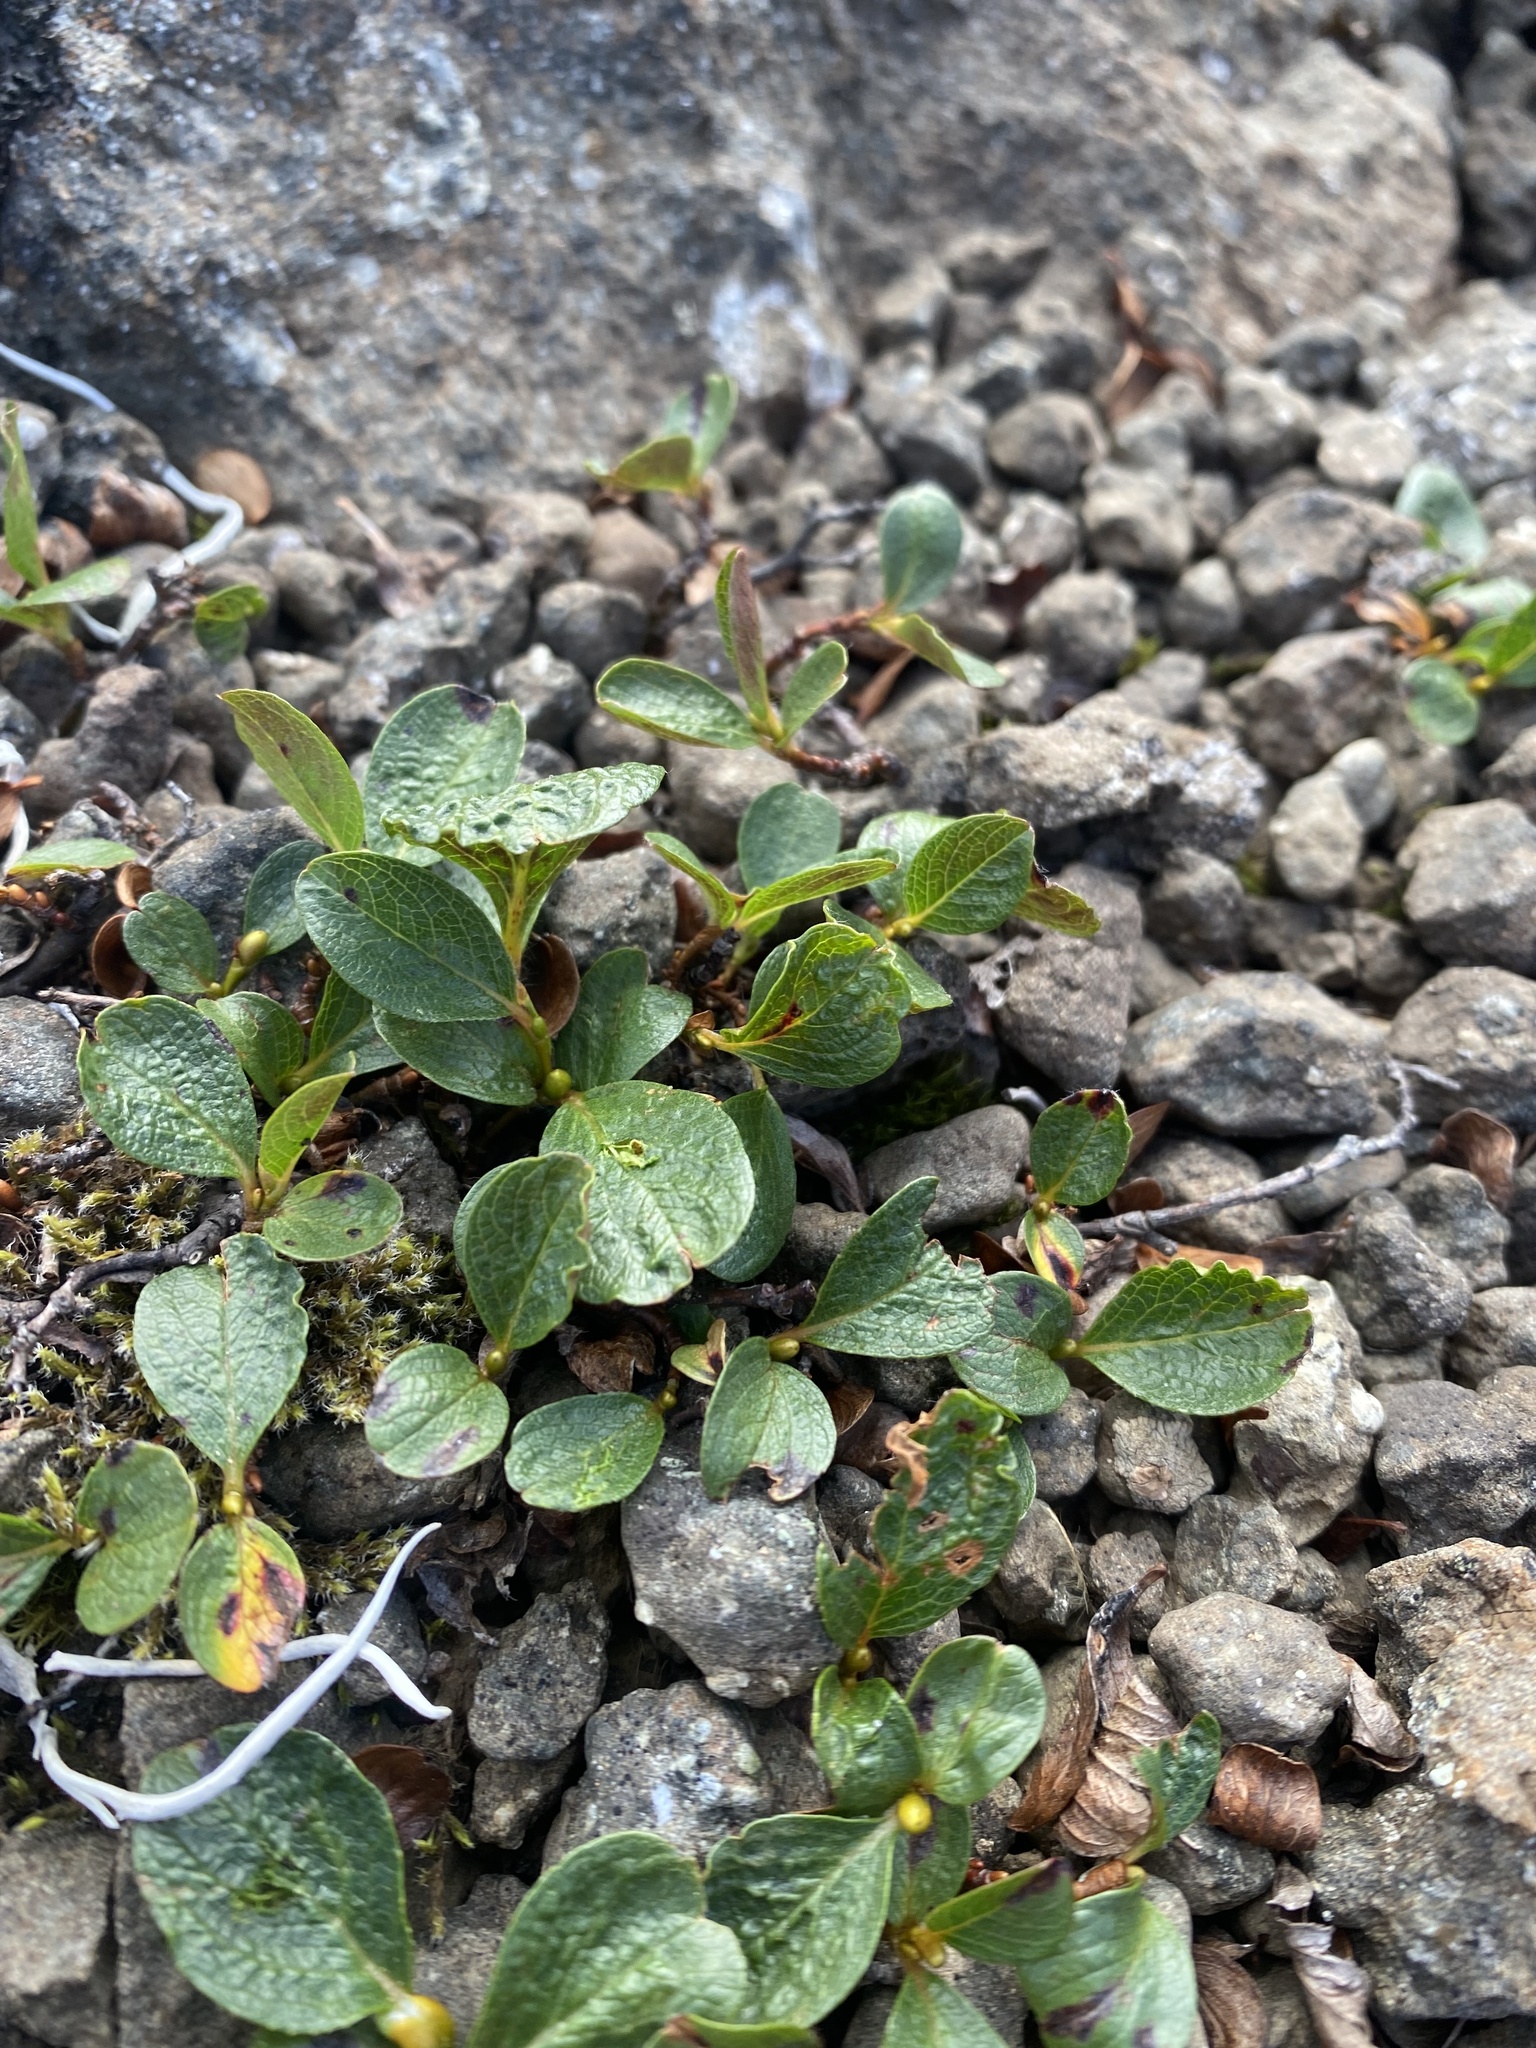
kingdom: Plantae
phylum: Tracheophyta
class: Magnoliopsida
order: Malpighiales
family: Salicaceae
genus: Salix
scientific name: Salix polaris
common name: Polar willow
